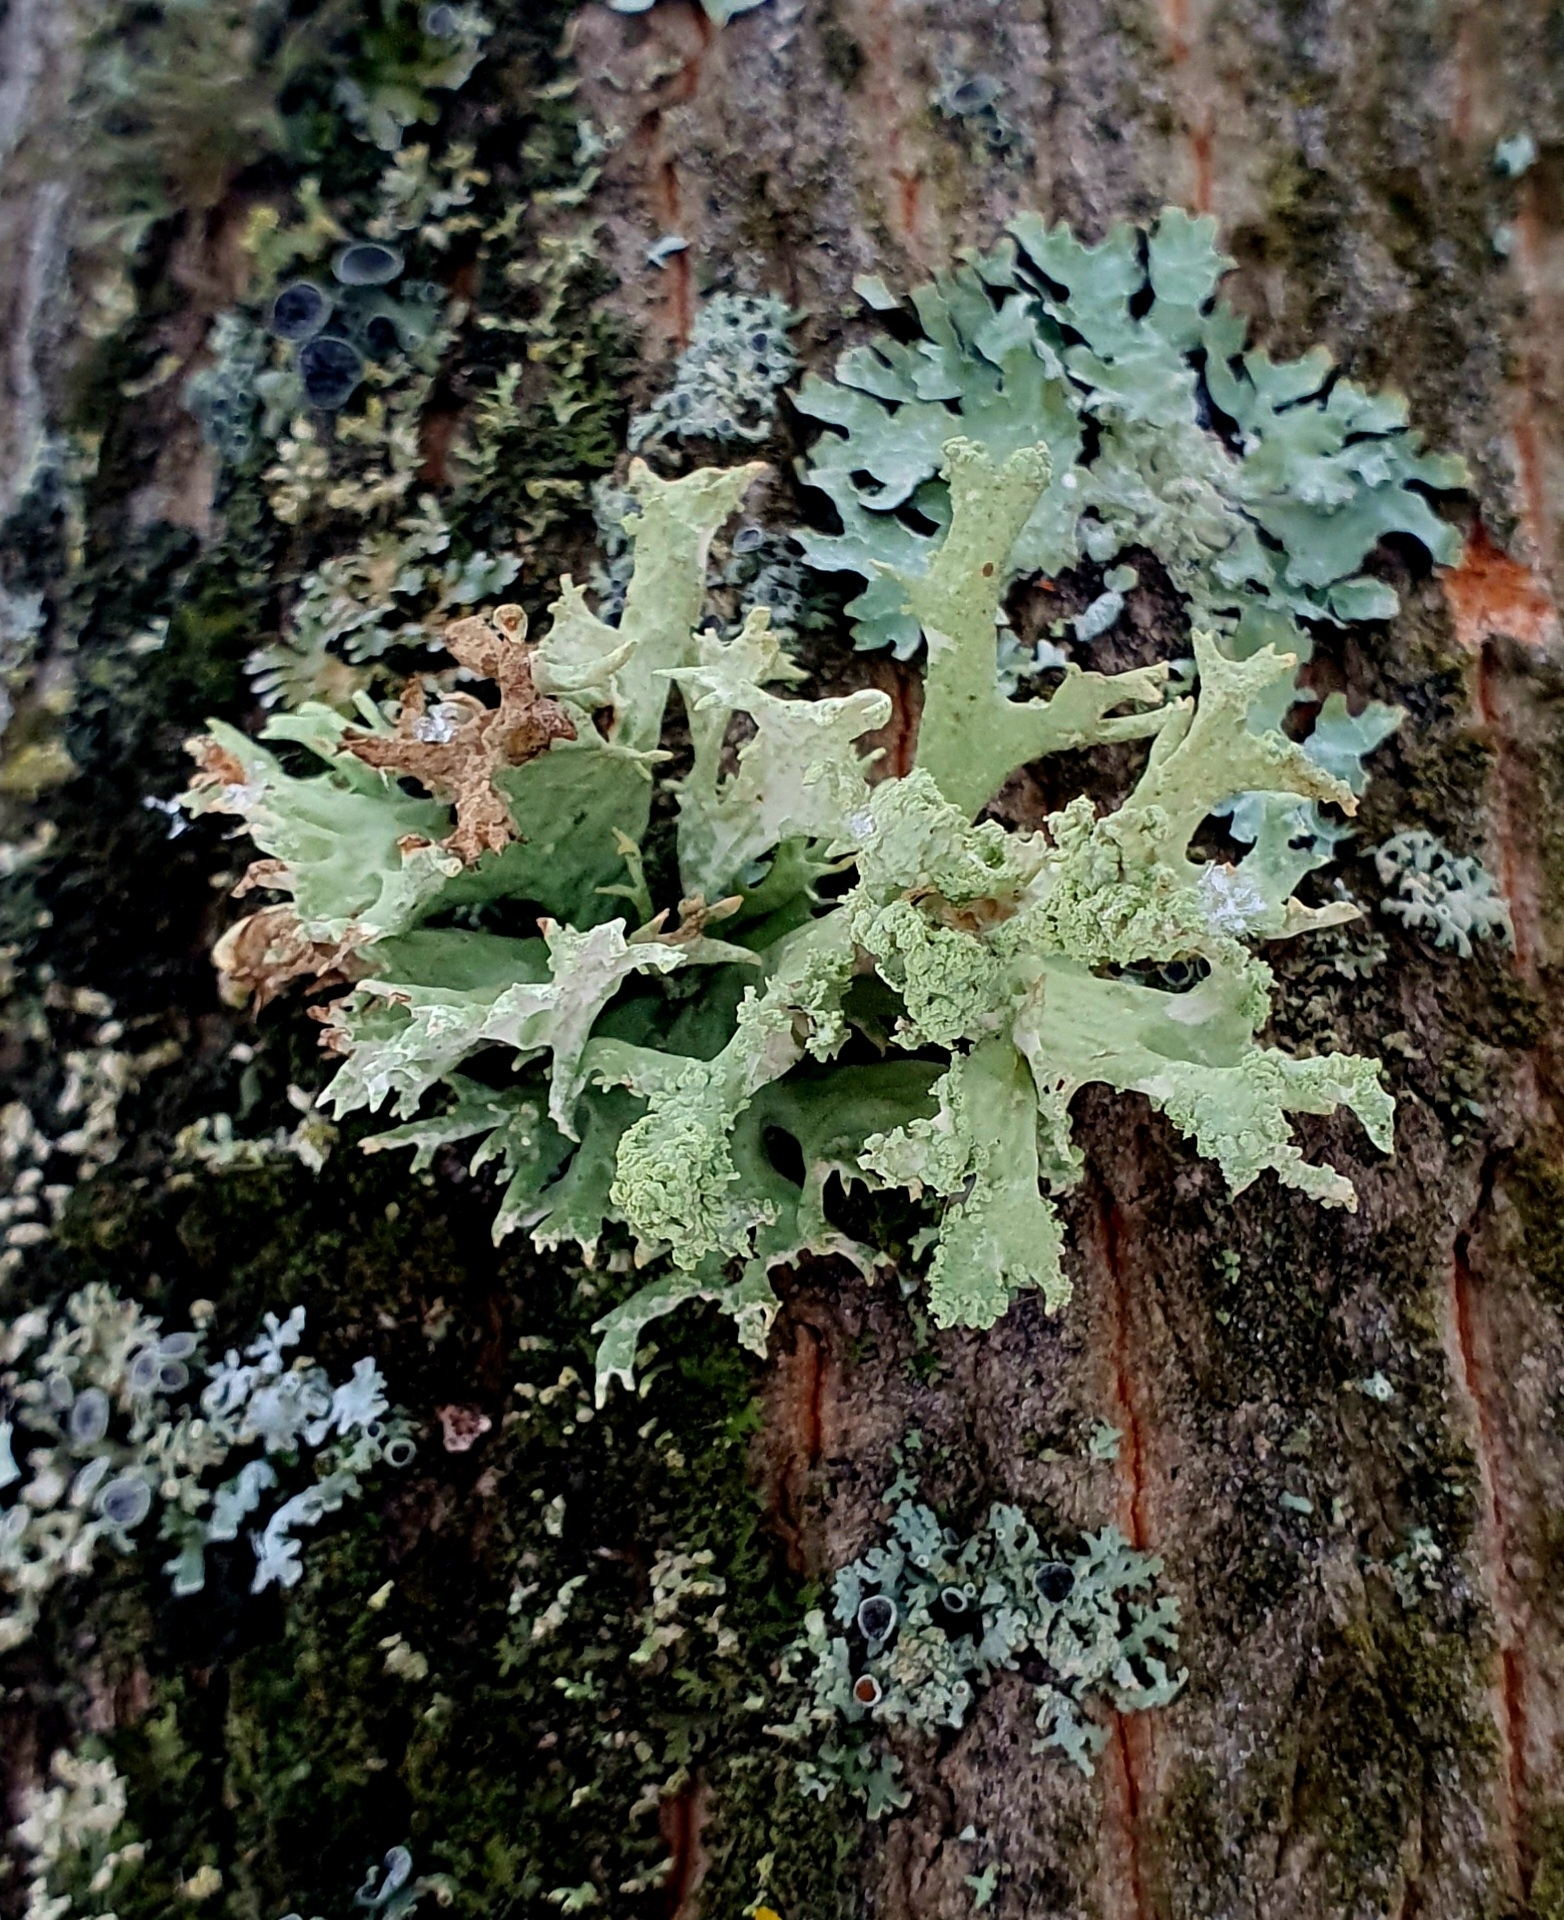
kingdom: Fungi
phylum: Ascomycota
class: Lecanoromycetes
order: Lecanorales
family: Parmeliaceae
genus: Evernia
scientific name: Evernia prunastri
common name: Oak moss
